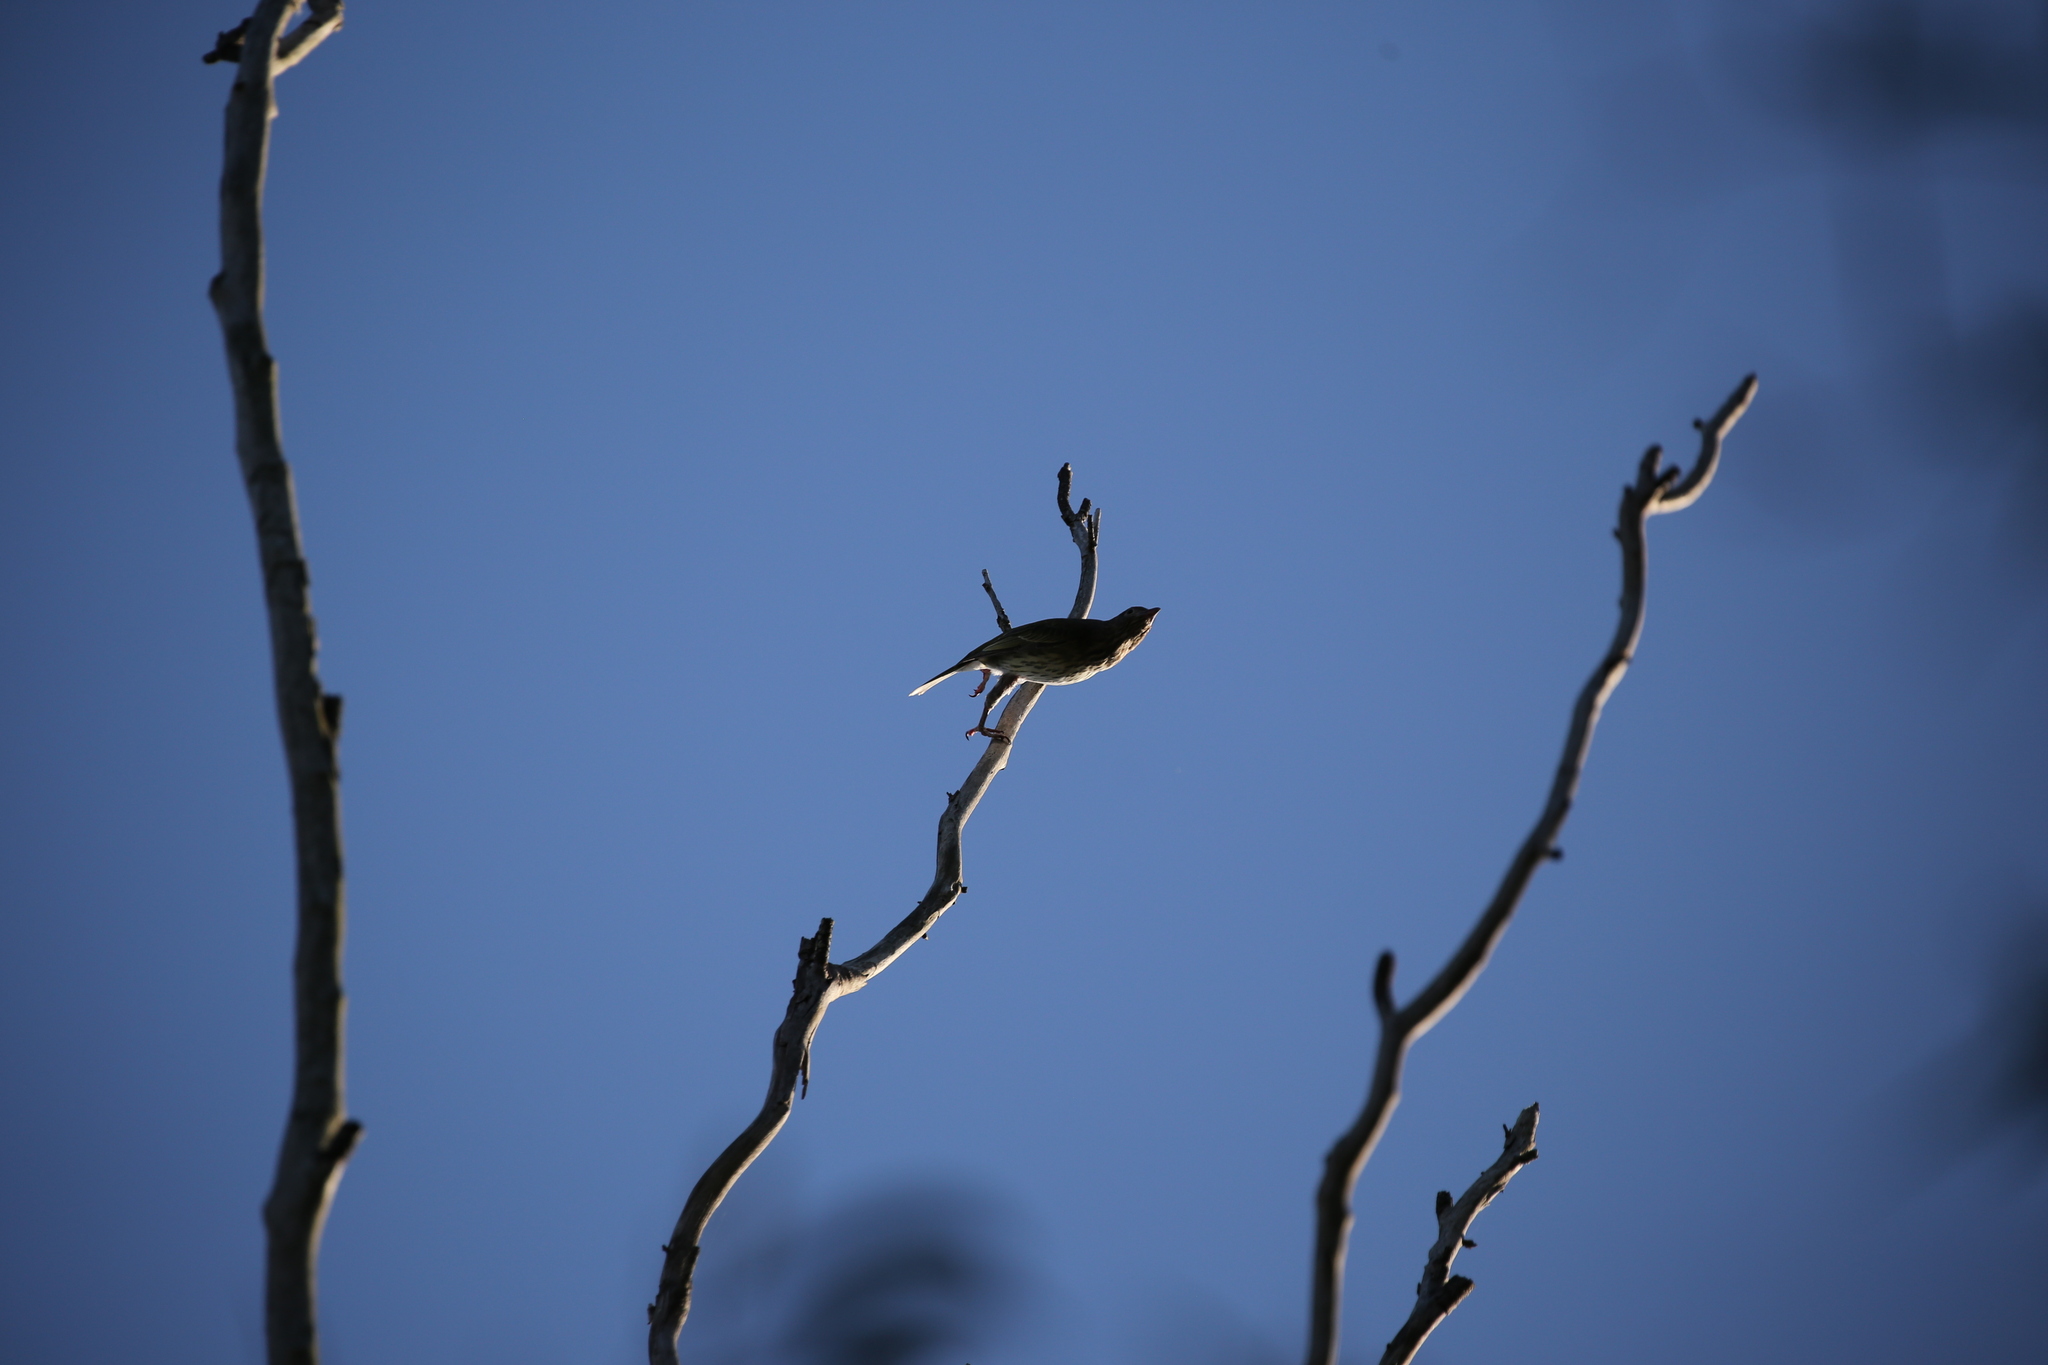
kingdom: Animalia
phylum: Chordata
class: Aves
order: Passeriformes
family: Oriolidae
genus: Sphecotheres
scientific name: Sphecotheres vieilloti
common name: Australasian figbird
